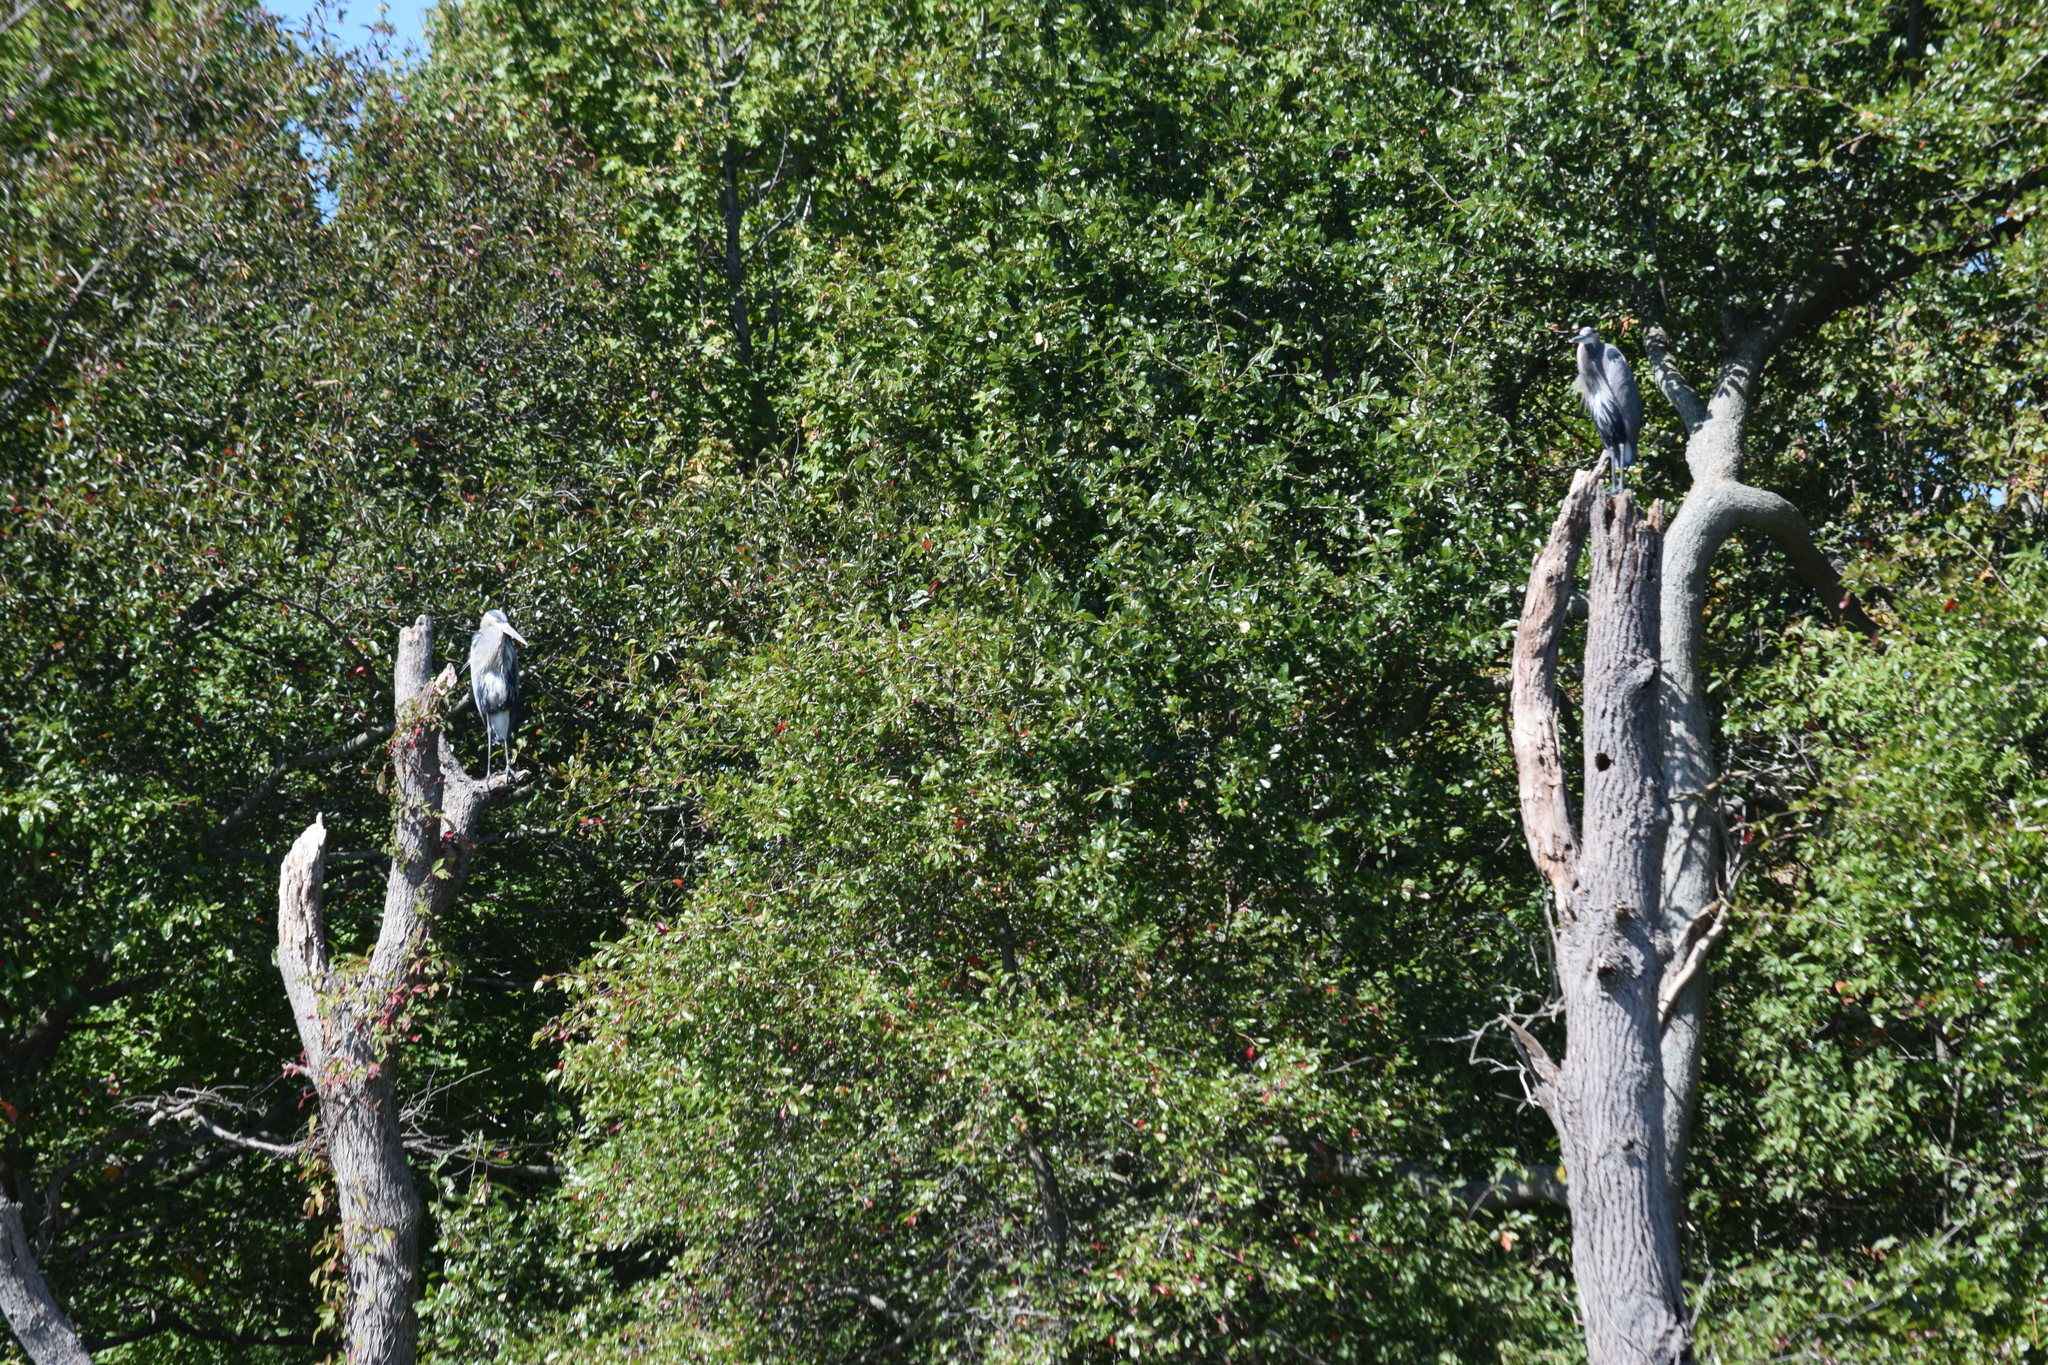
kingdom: Animalia
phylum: Chordata
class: Aves
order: Pelecaniformes
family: Ardeidae
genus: Ardea
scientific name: Ardea herodias
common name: Great blue heron
